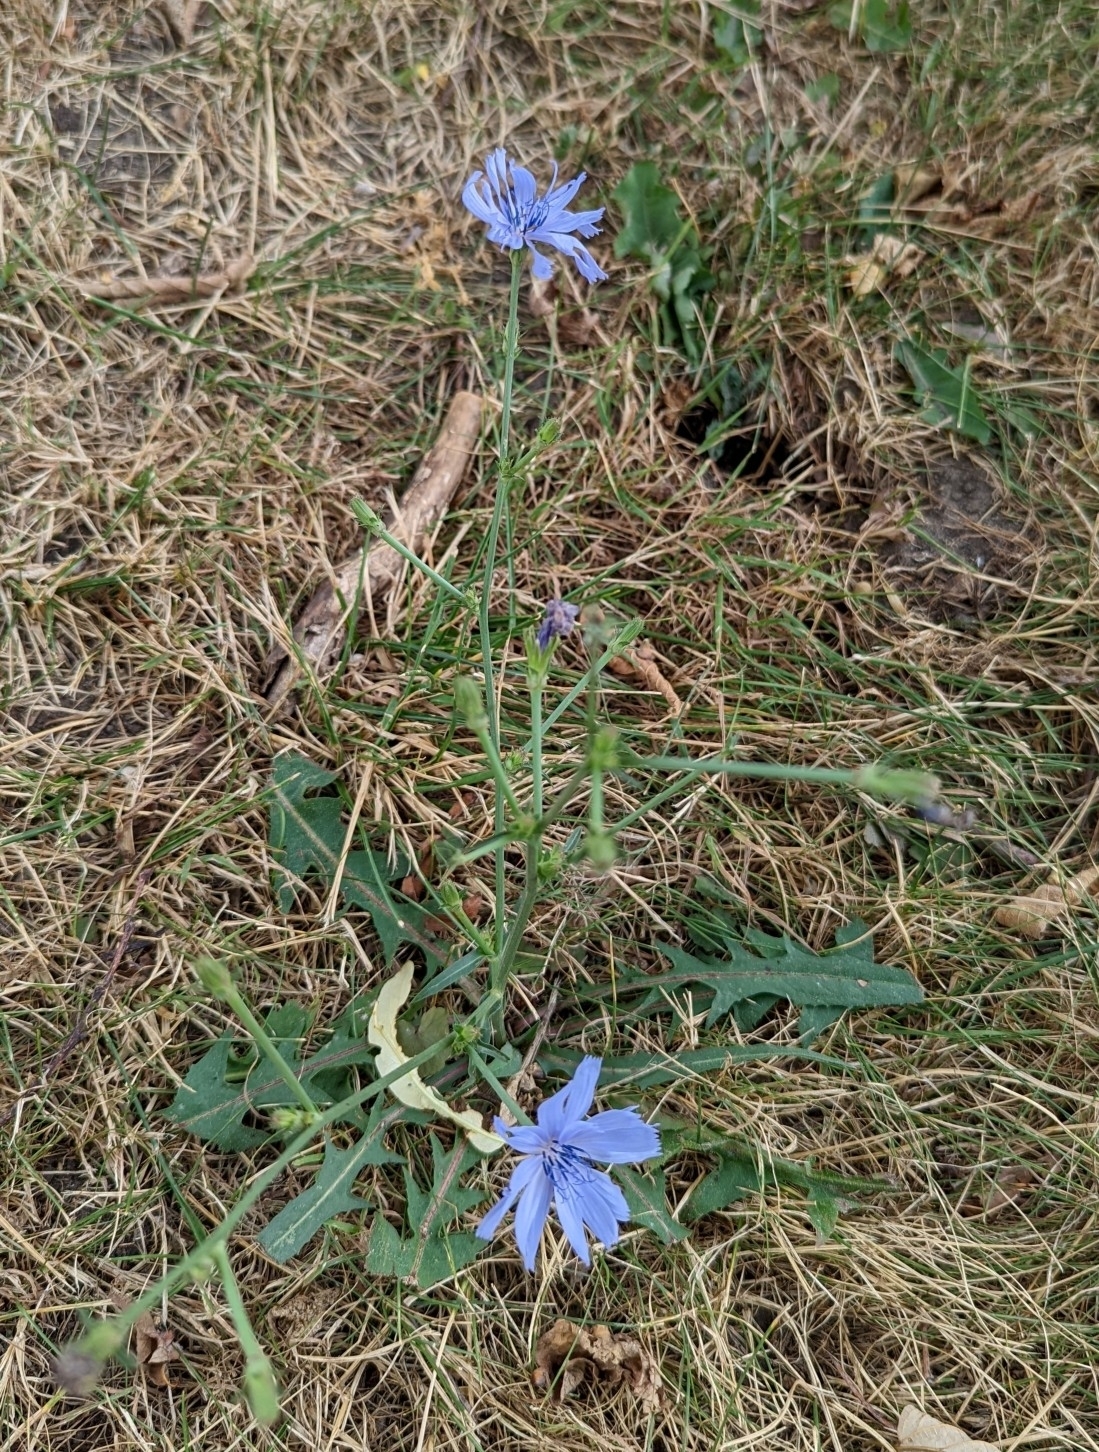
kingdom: Plantae
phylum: Tracheophyta
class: Magnoliopsida
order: Asterales
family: Asteraceae
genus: Cichorium
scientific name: Cichorium intybus
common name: Chicory
